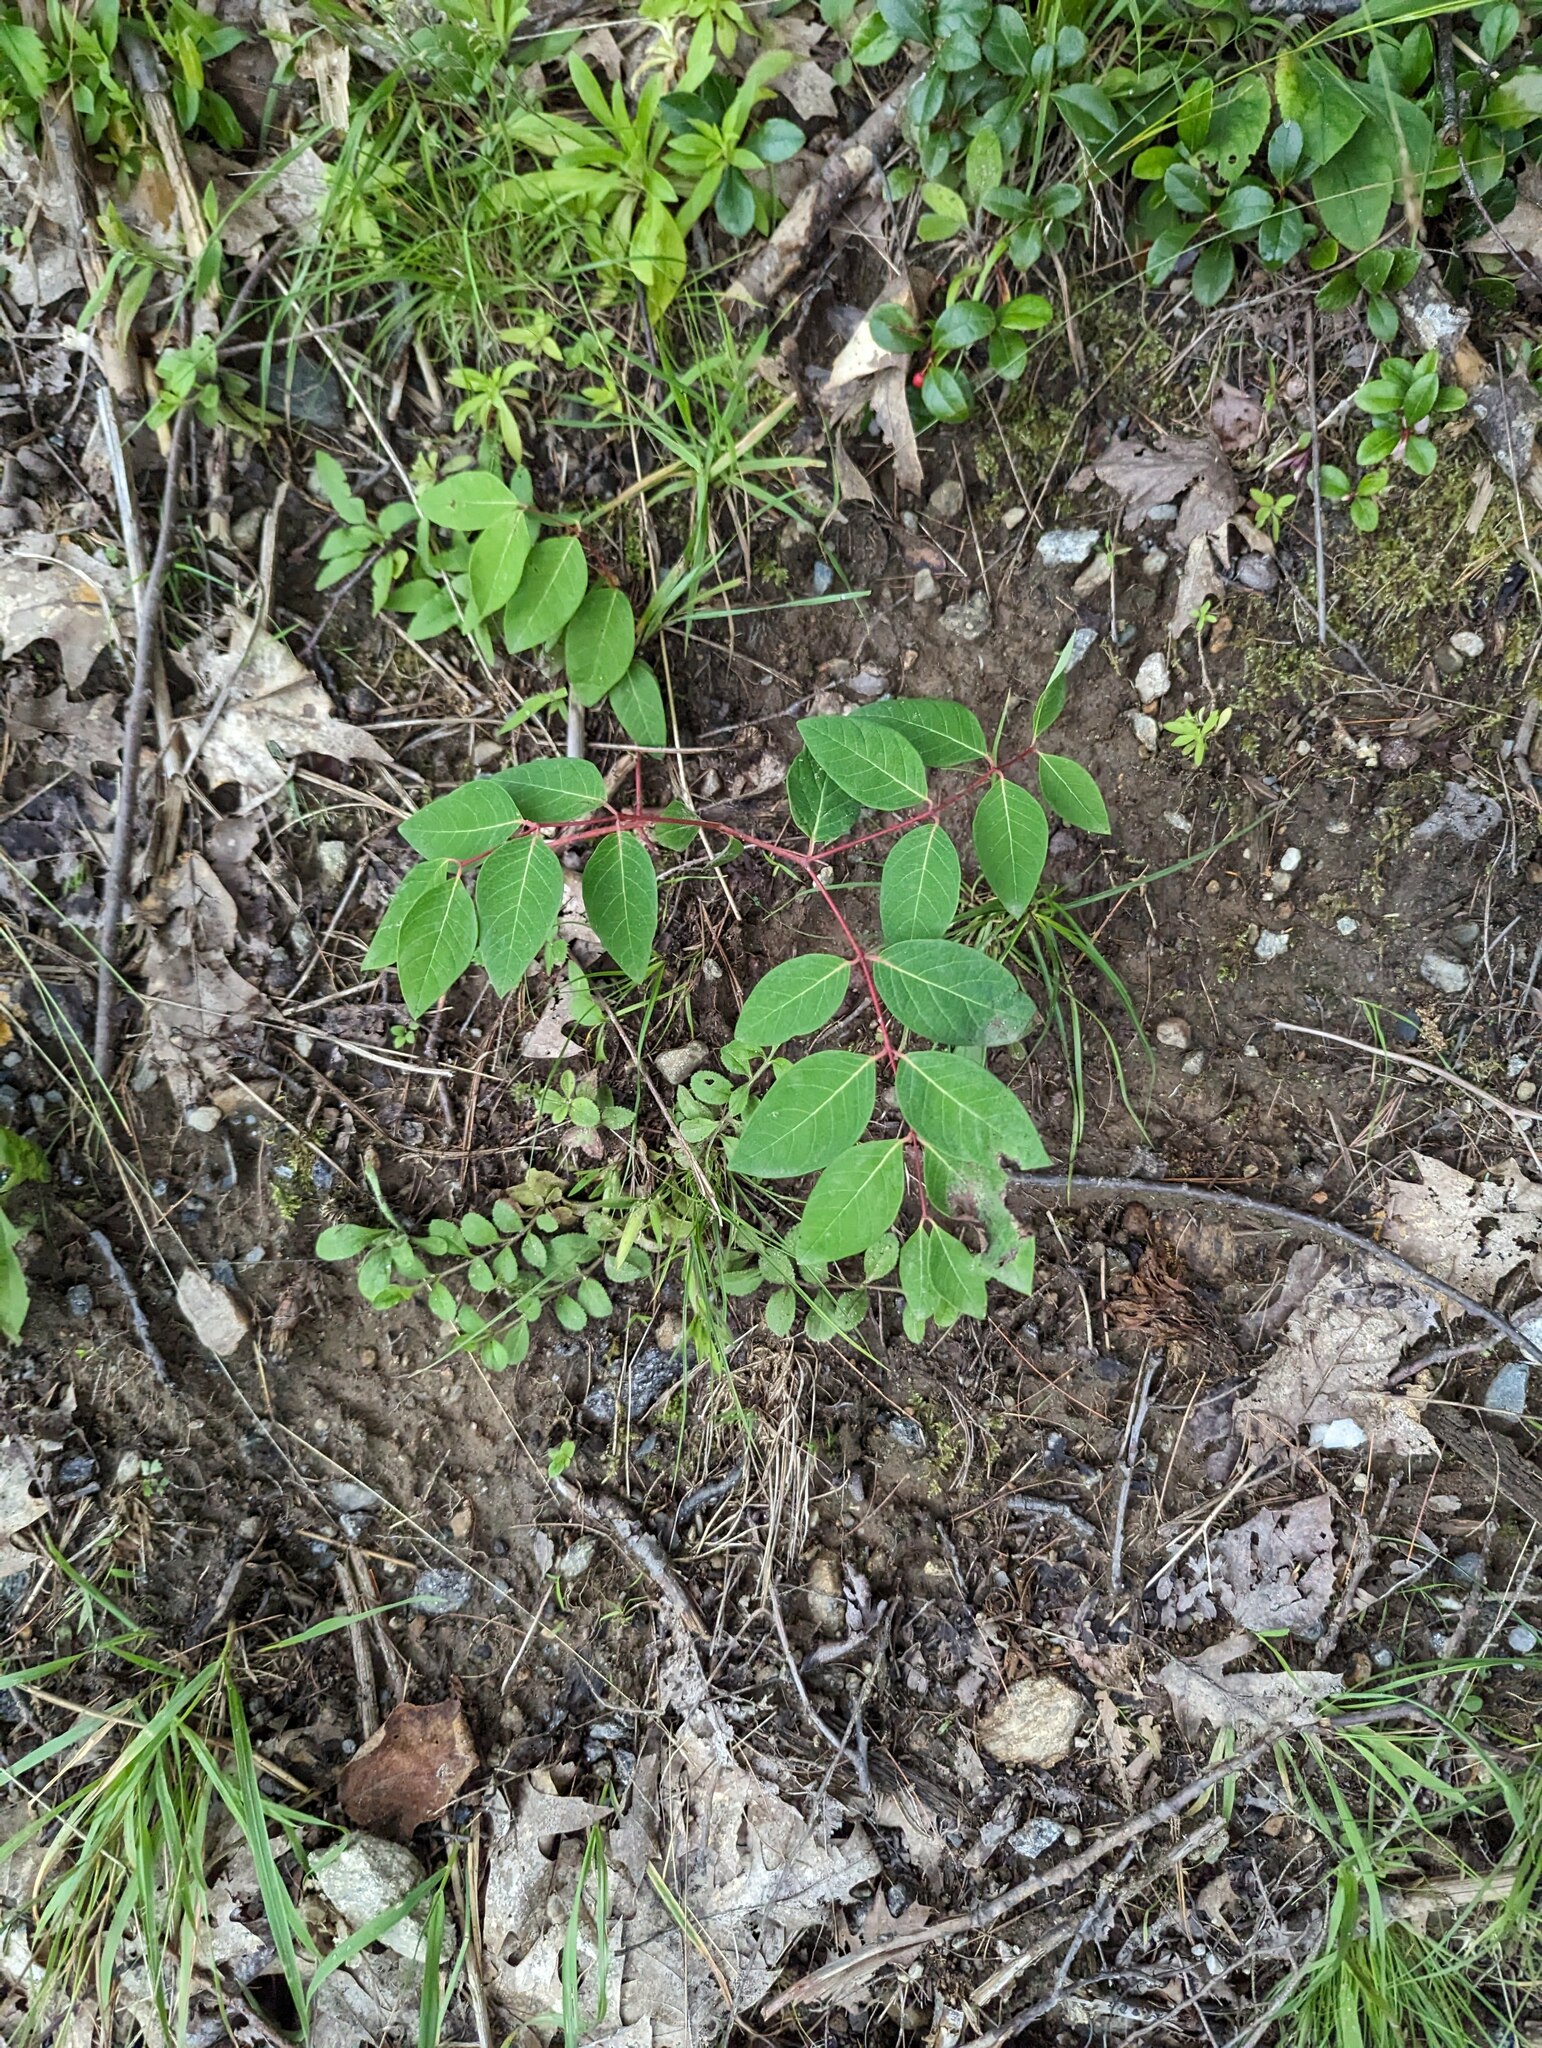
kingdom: Plantae
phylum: Tracheophyta
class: Magnoliopsida
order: Gentianales
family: Apocynaceae
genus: Apocynum
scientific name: Apocynum androsaemifolium
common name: Spreading dogbane
